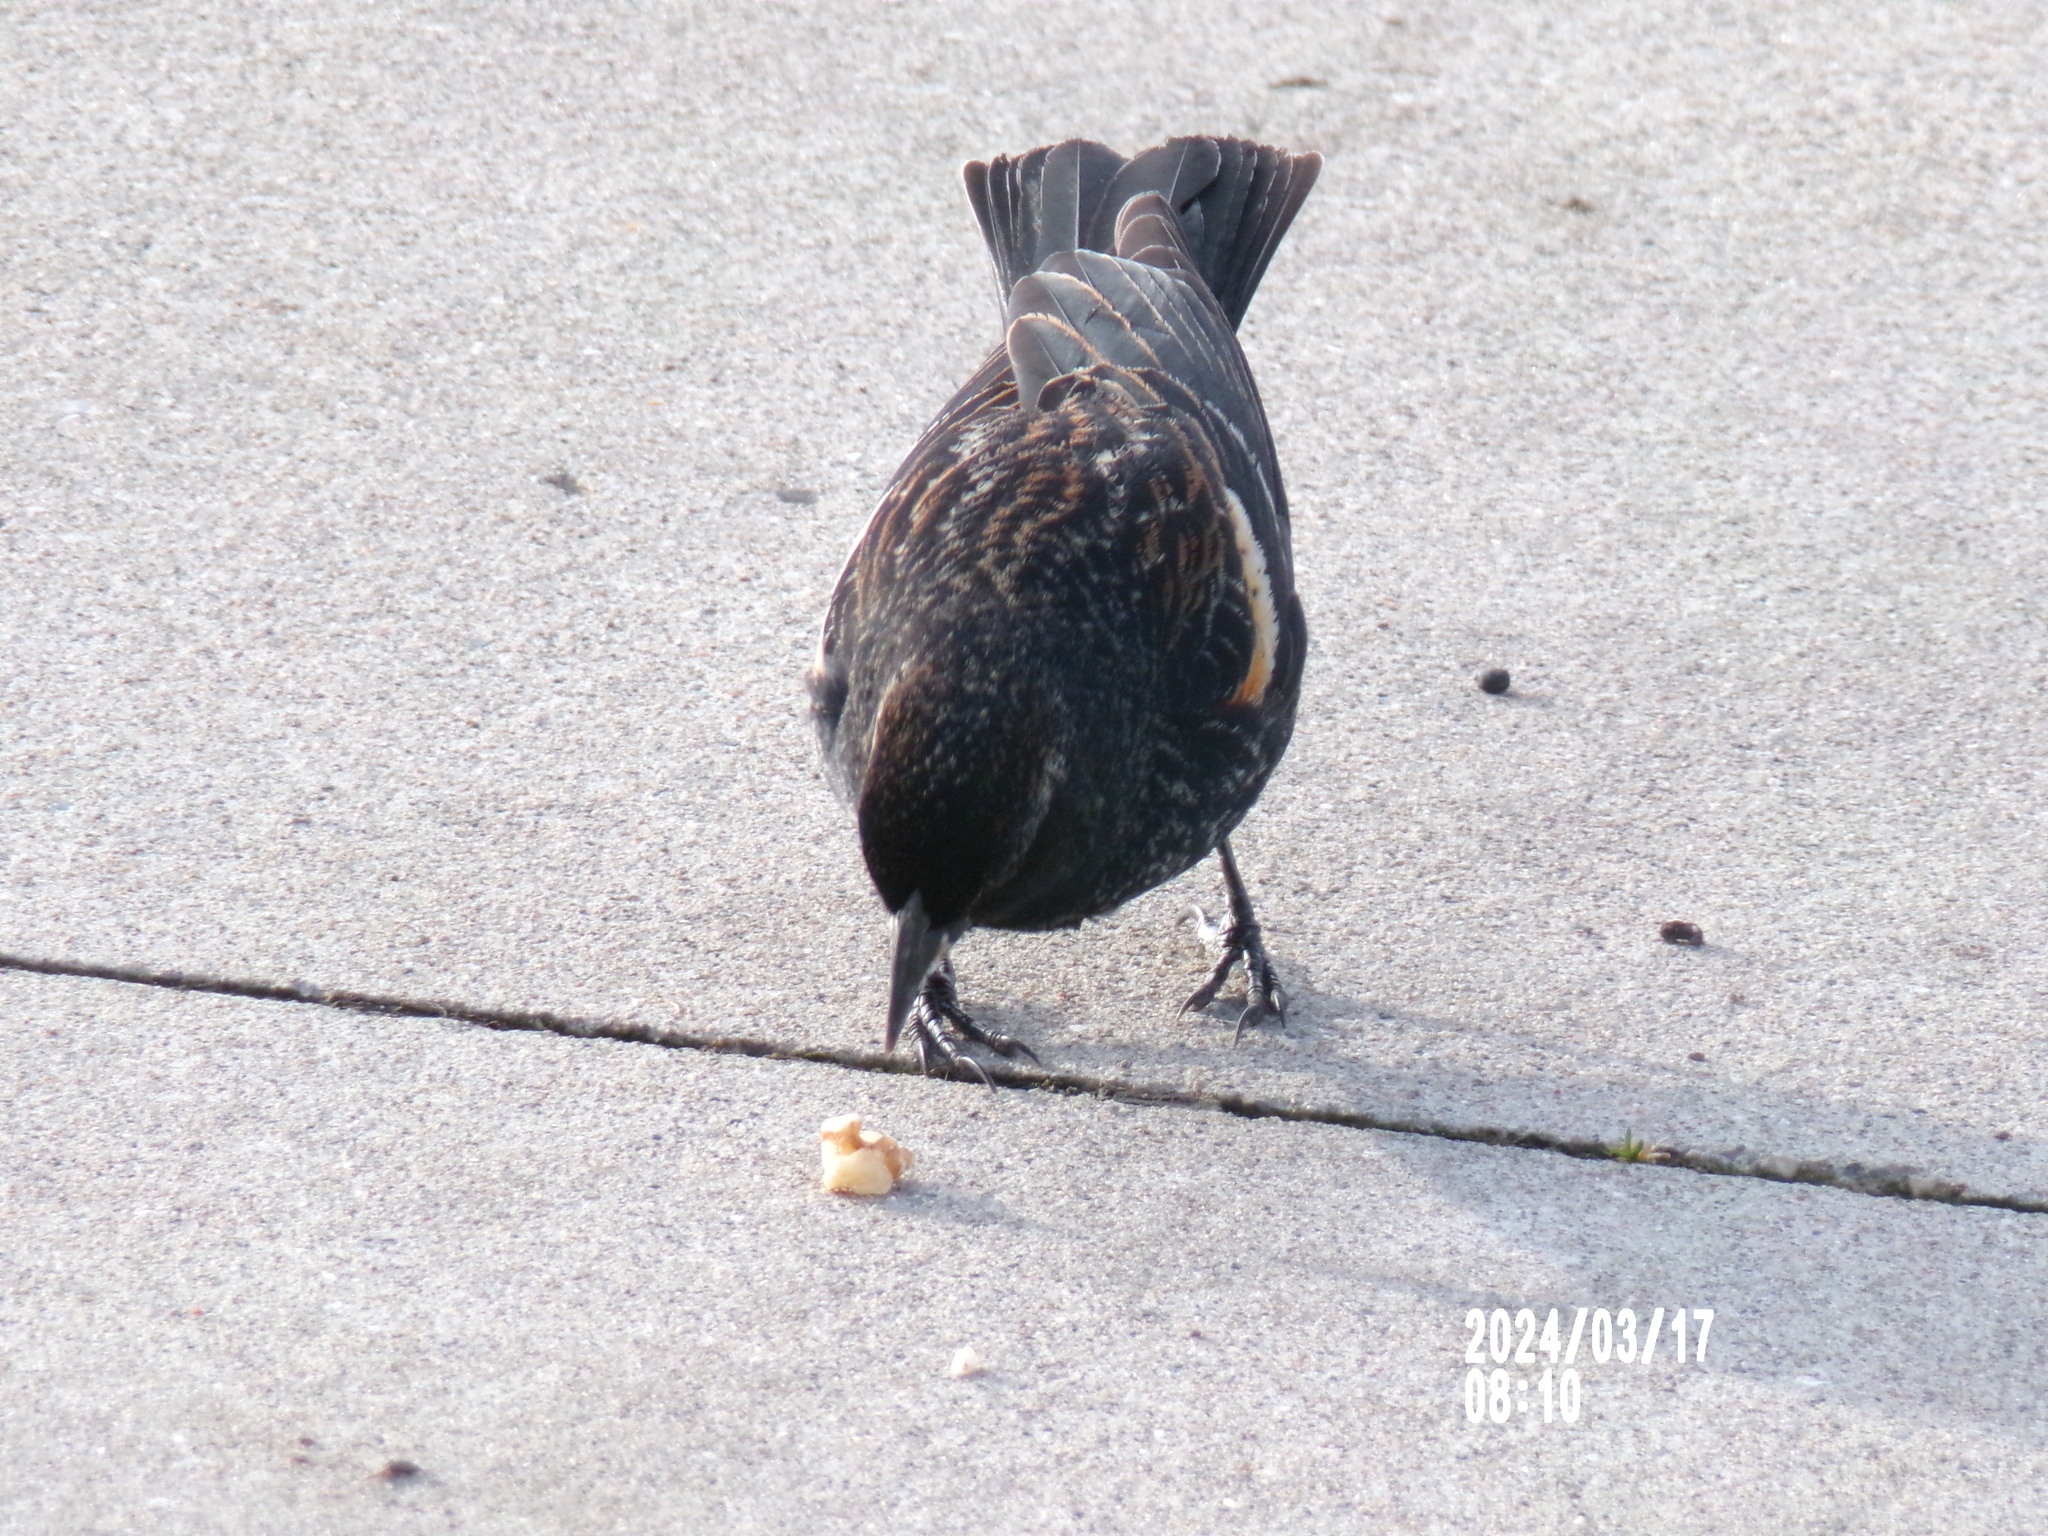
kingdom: Animalia
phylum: Chordata
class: Aves
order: Passeriformes
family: Icteridae
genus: Agelaius
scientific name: Agelaius phoeniceus
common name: Red-winged blackbird
